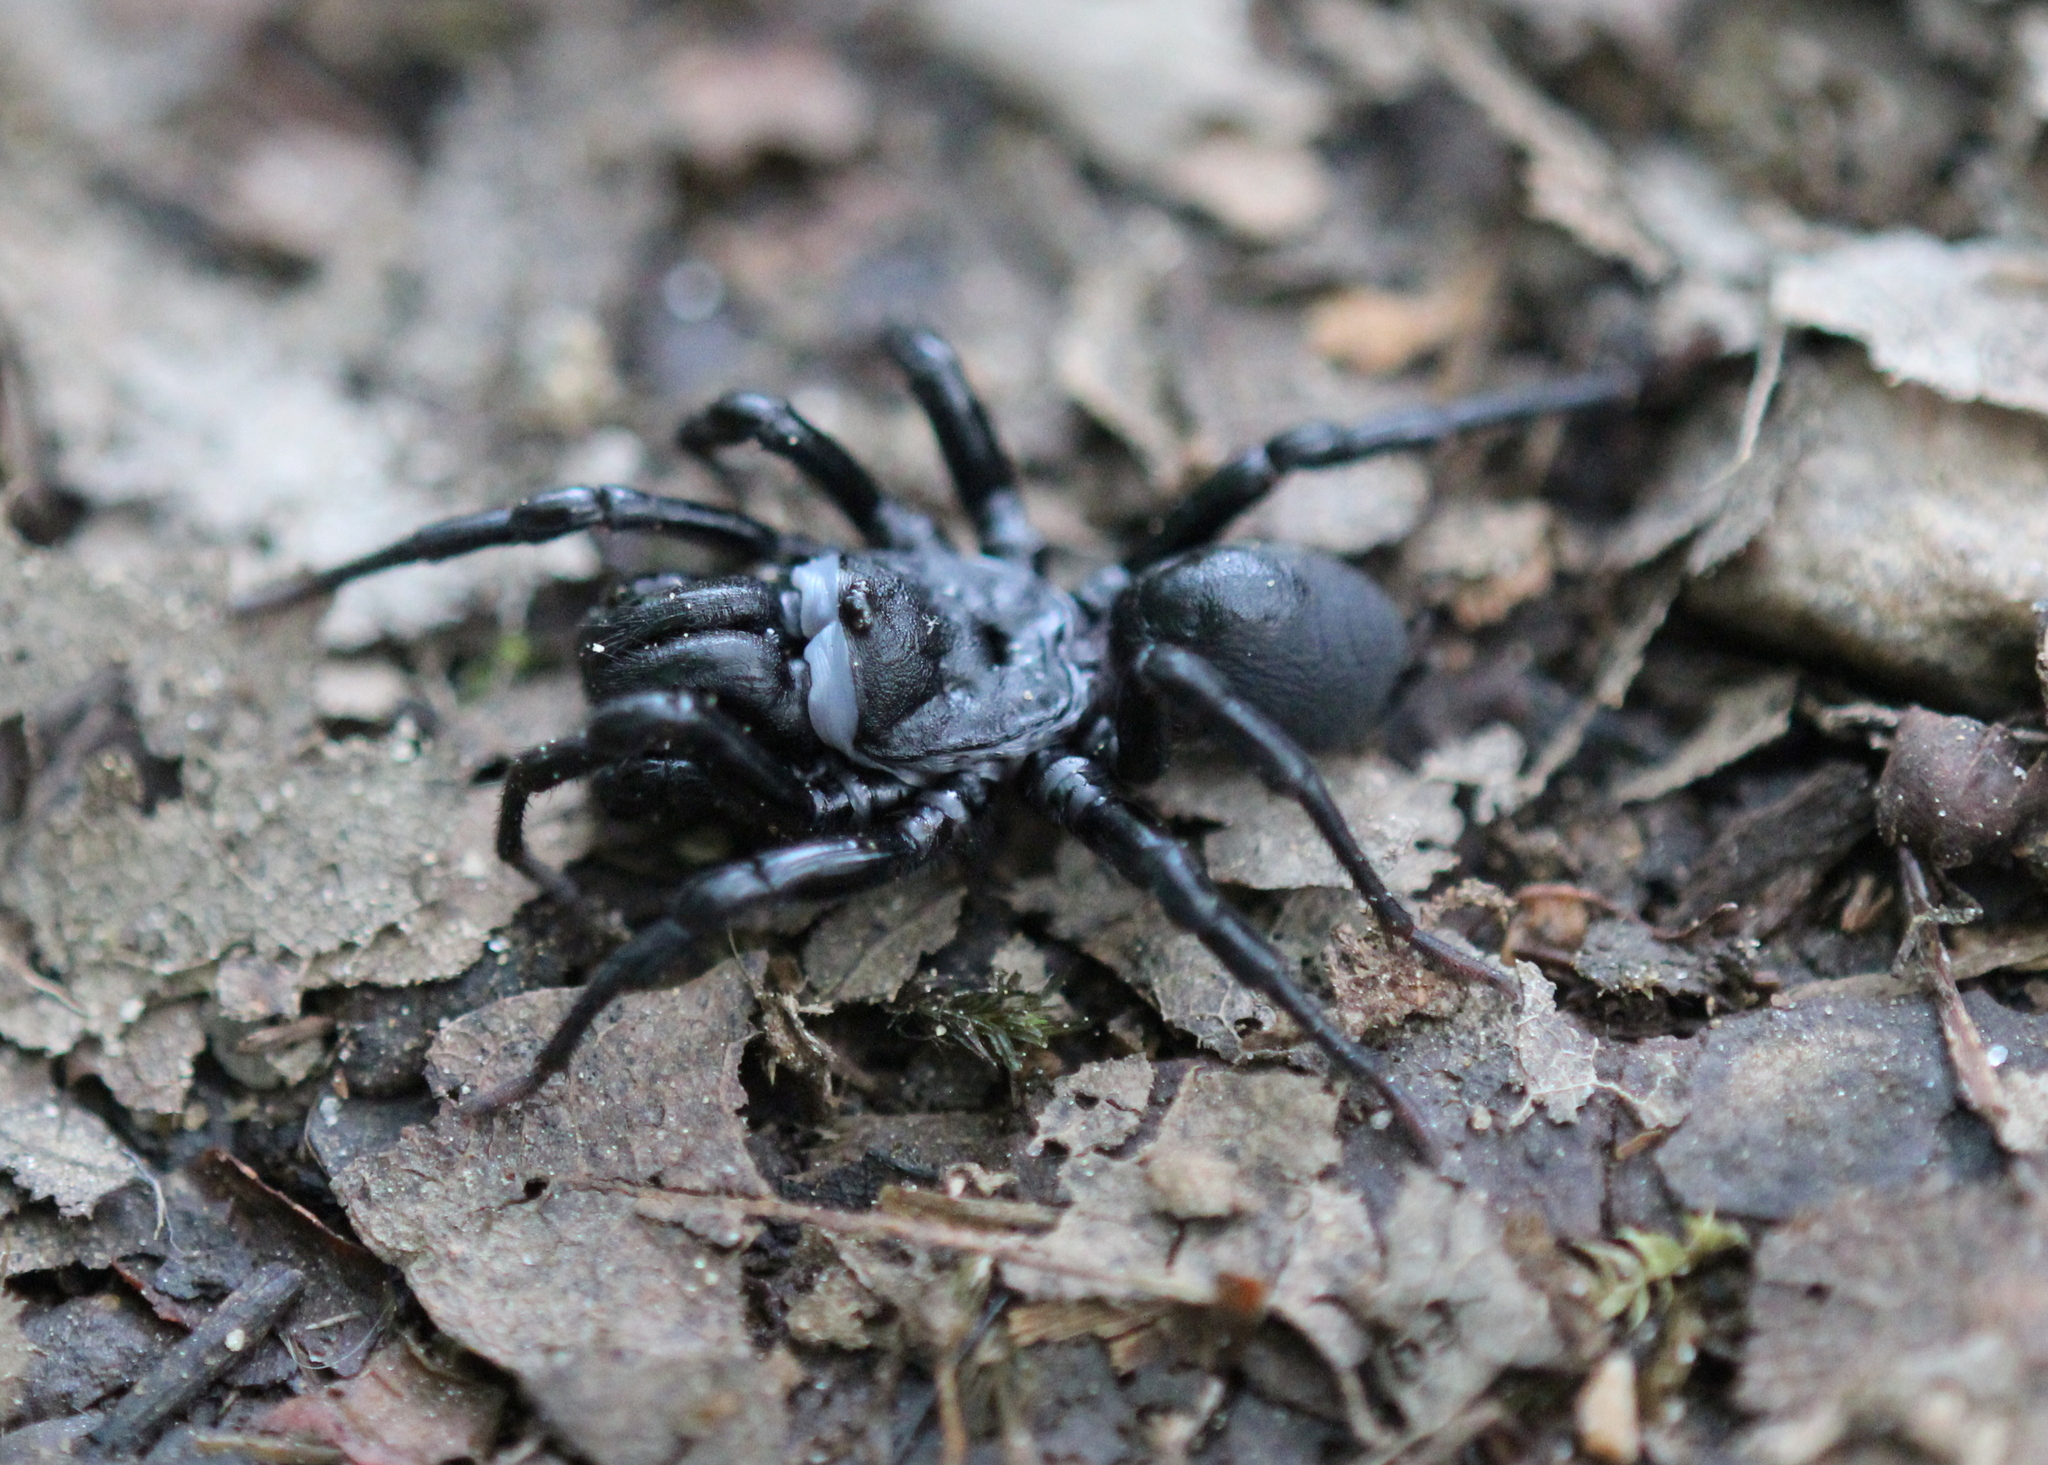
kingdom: Animalia
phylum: Arthropoda
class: Arachnida
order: Araneae
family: Atypidae
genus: Sphodros
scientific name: Sphodros niger
